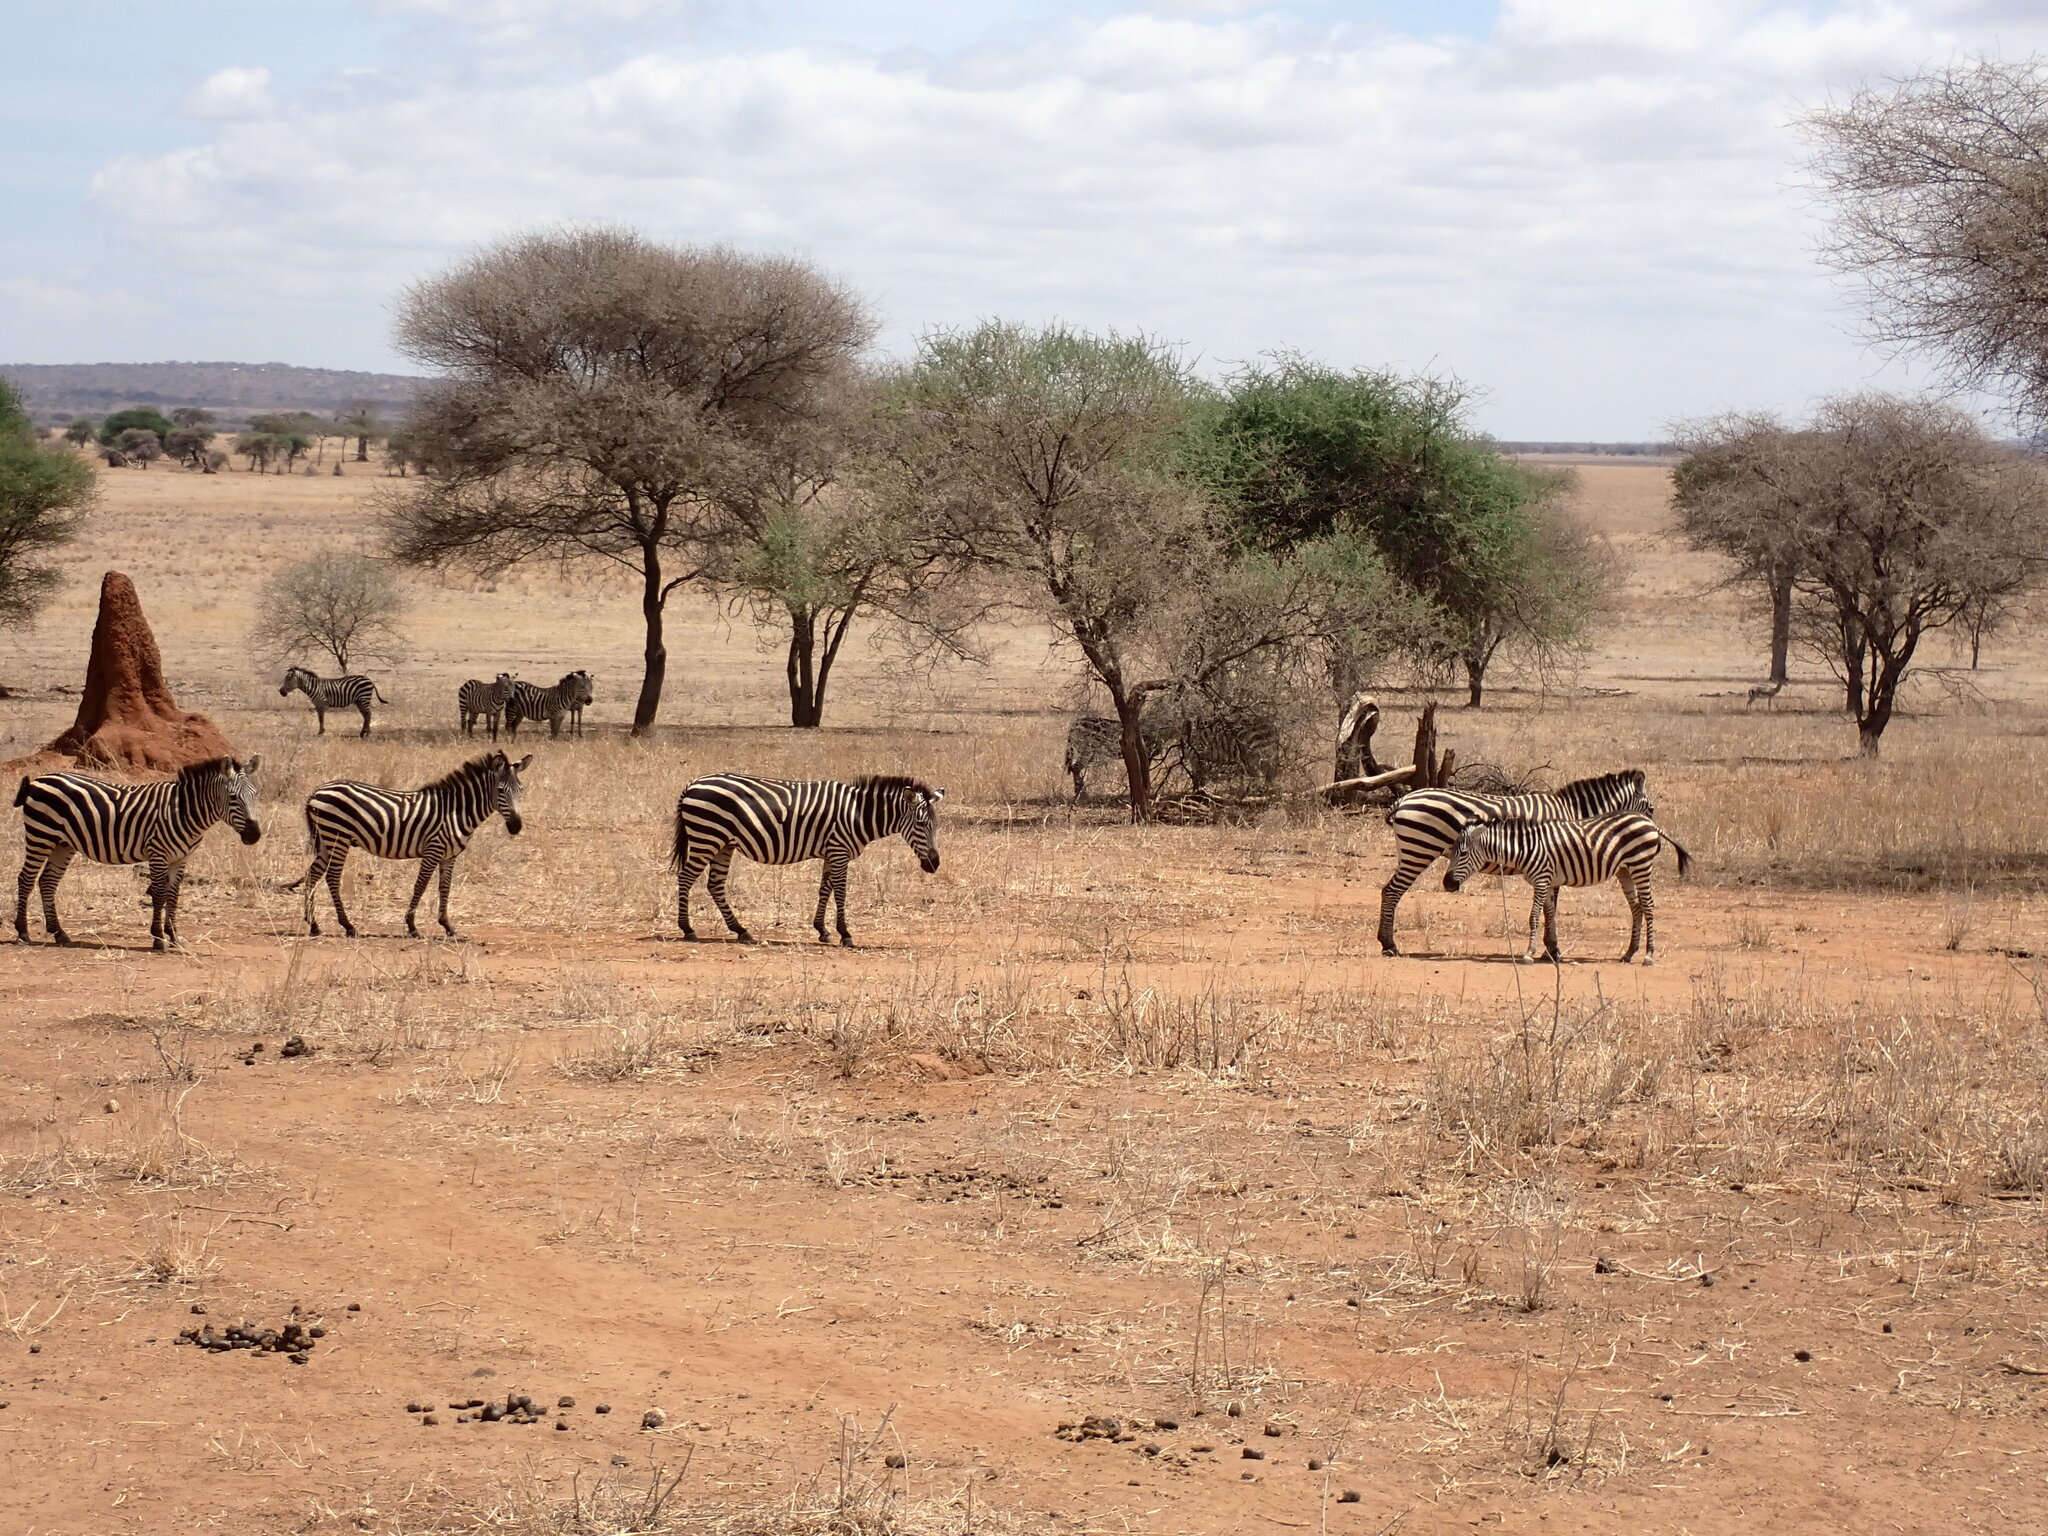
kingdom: Animalia
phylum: Chordata
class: Mammalia
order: Perissodactyla
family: Equidae
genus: Equus
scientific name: Equus quagga
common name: Plains zebra
